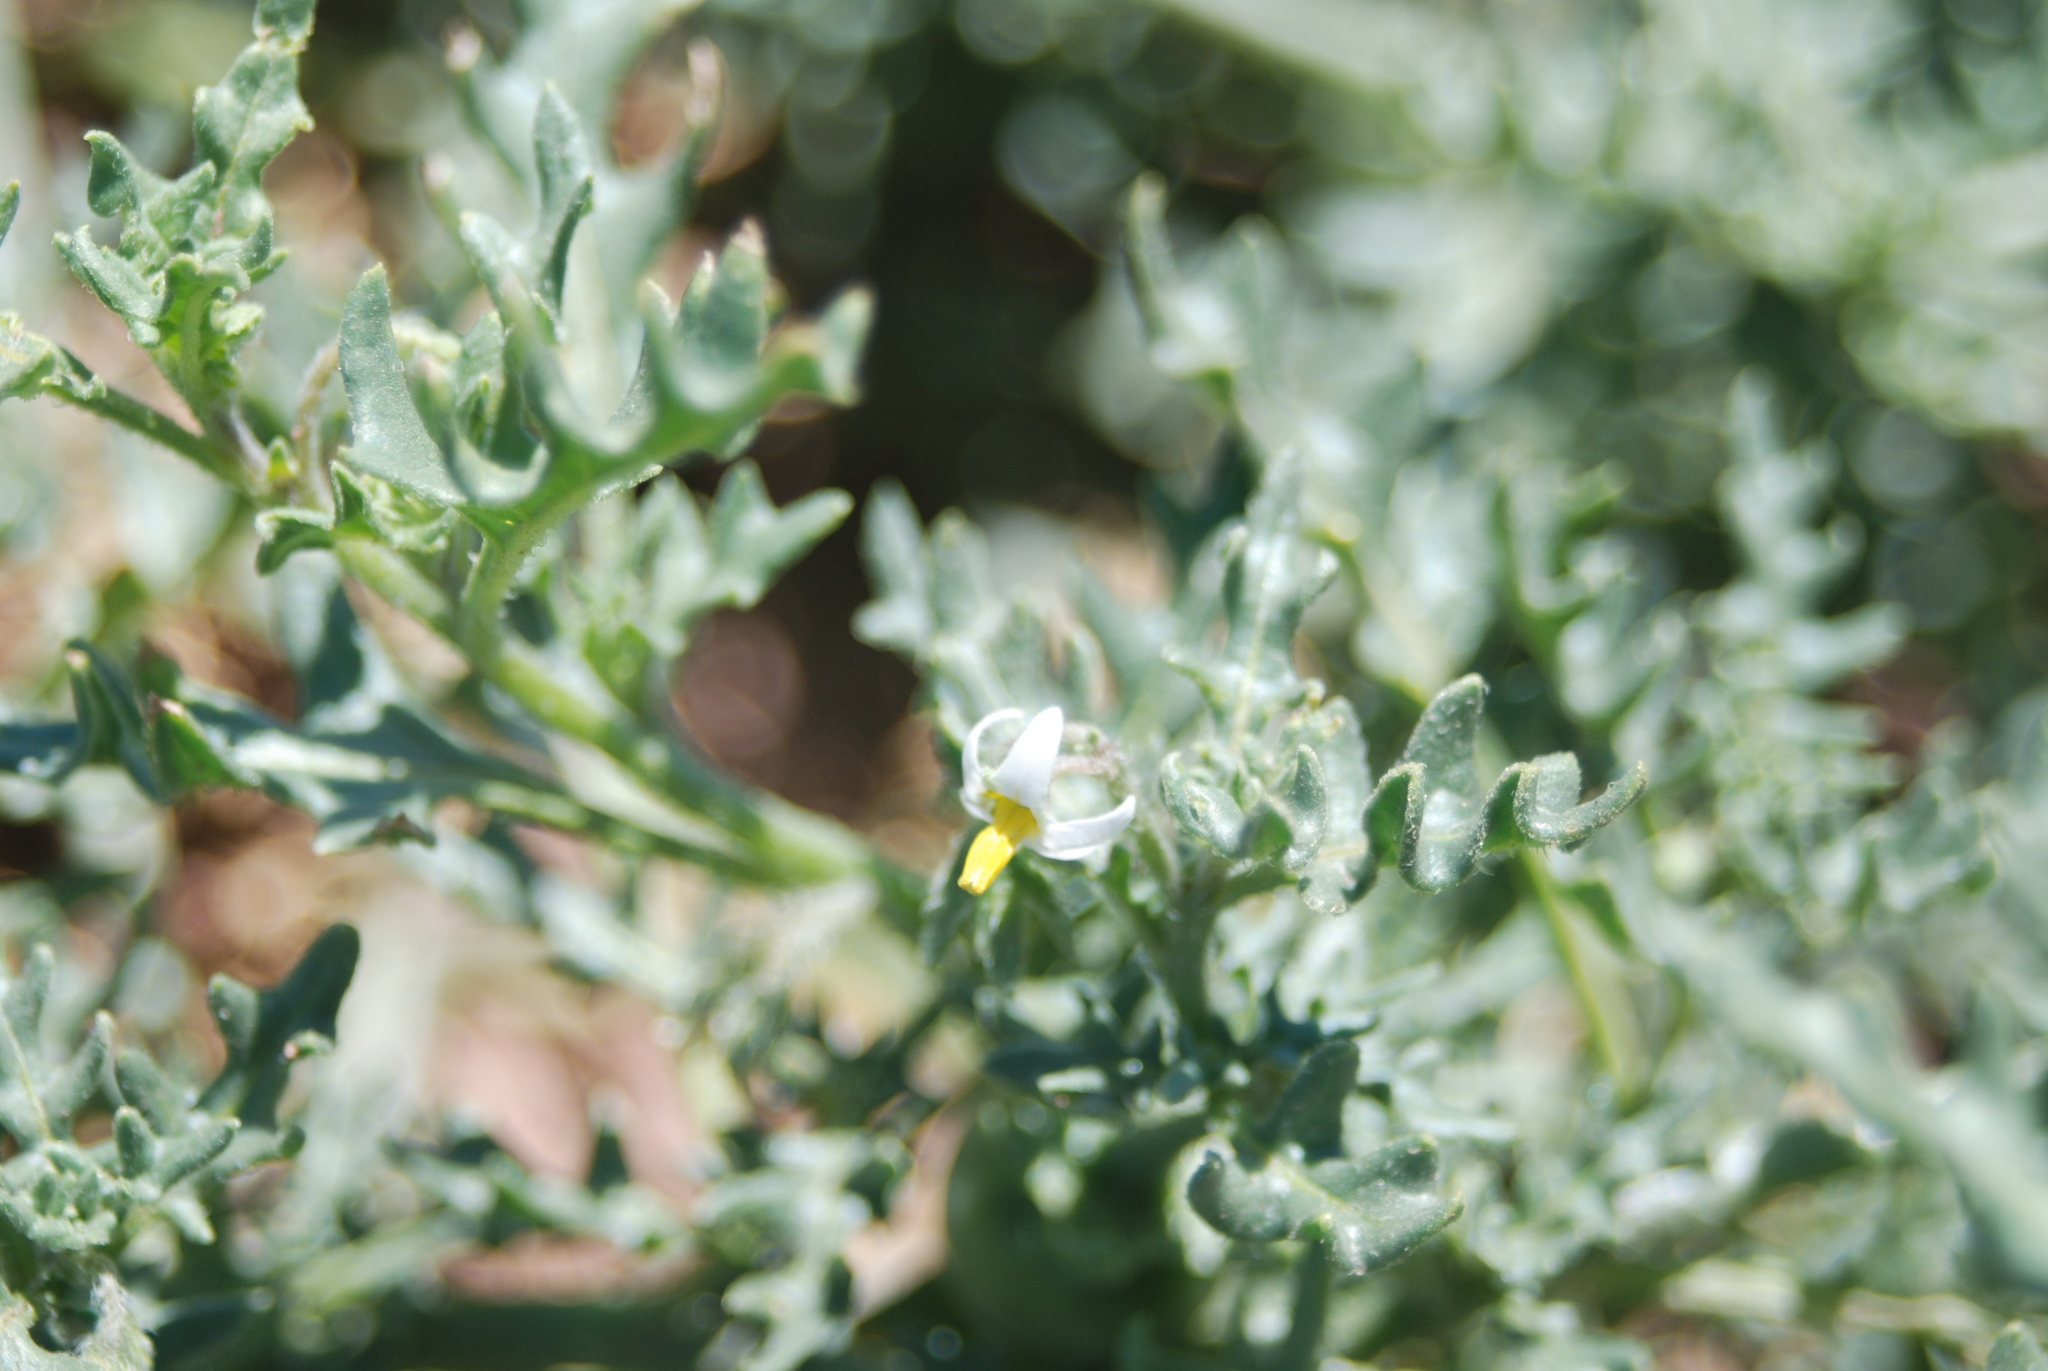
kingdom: Plantae
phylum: Tracheophyta
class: Magnoliopsida
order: Solanales
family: Solanaceae
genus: Solanum
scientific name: Solanum triflorum
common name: Small nightshade
